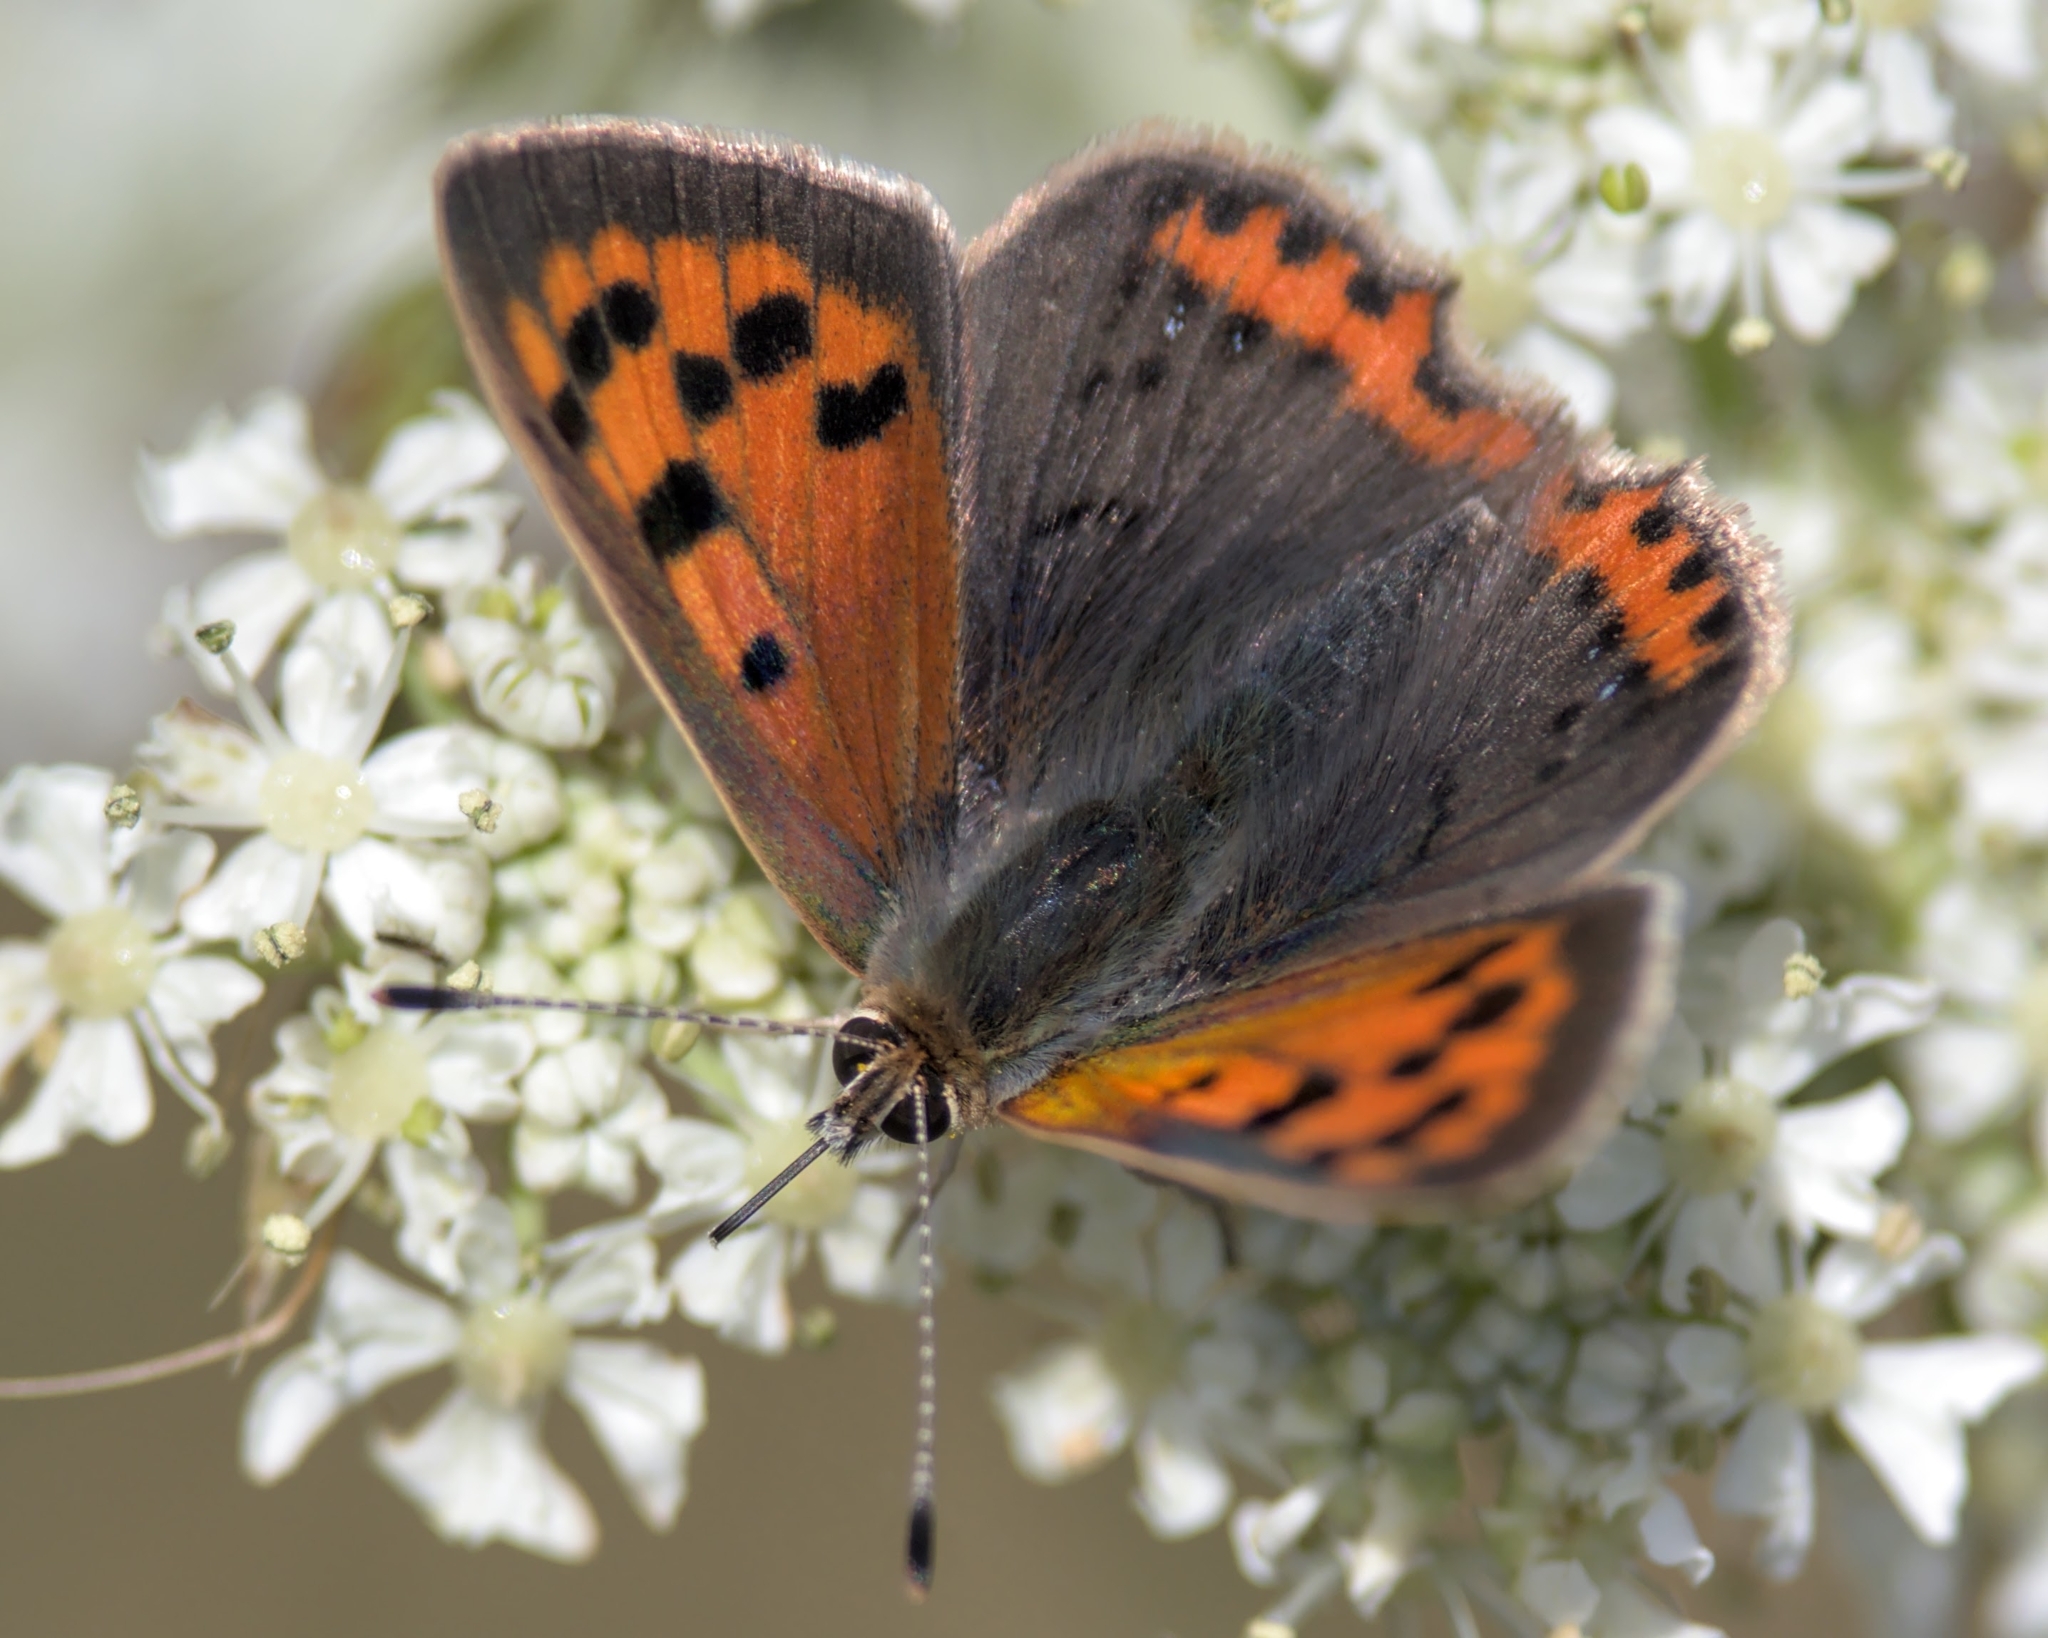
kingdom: Animalia
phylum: Arthropoda
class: Insecta
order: Lepidoptera
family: Lycaenidae
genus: Lycaena
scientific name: Lycaena phlaeas
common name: Small copper
